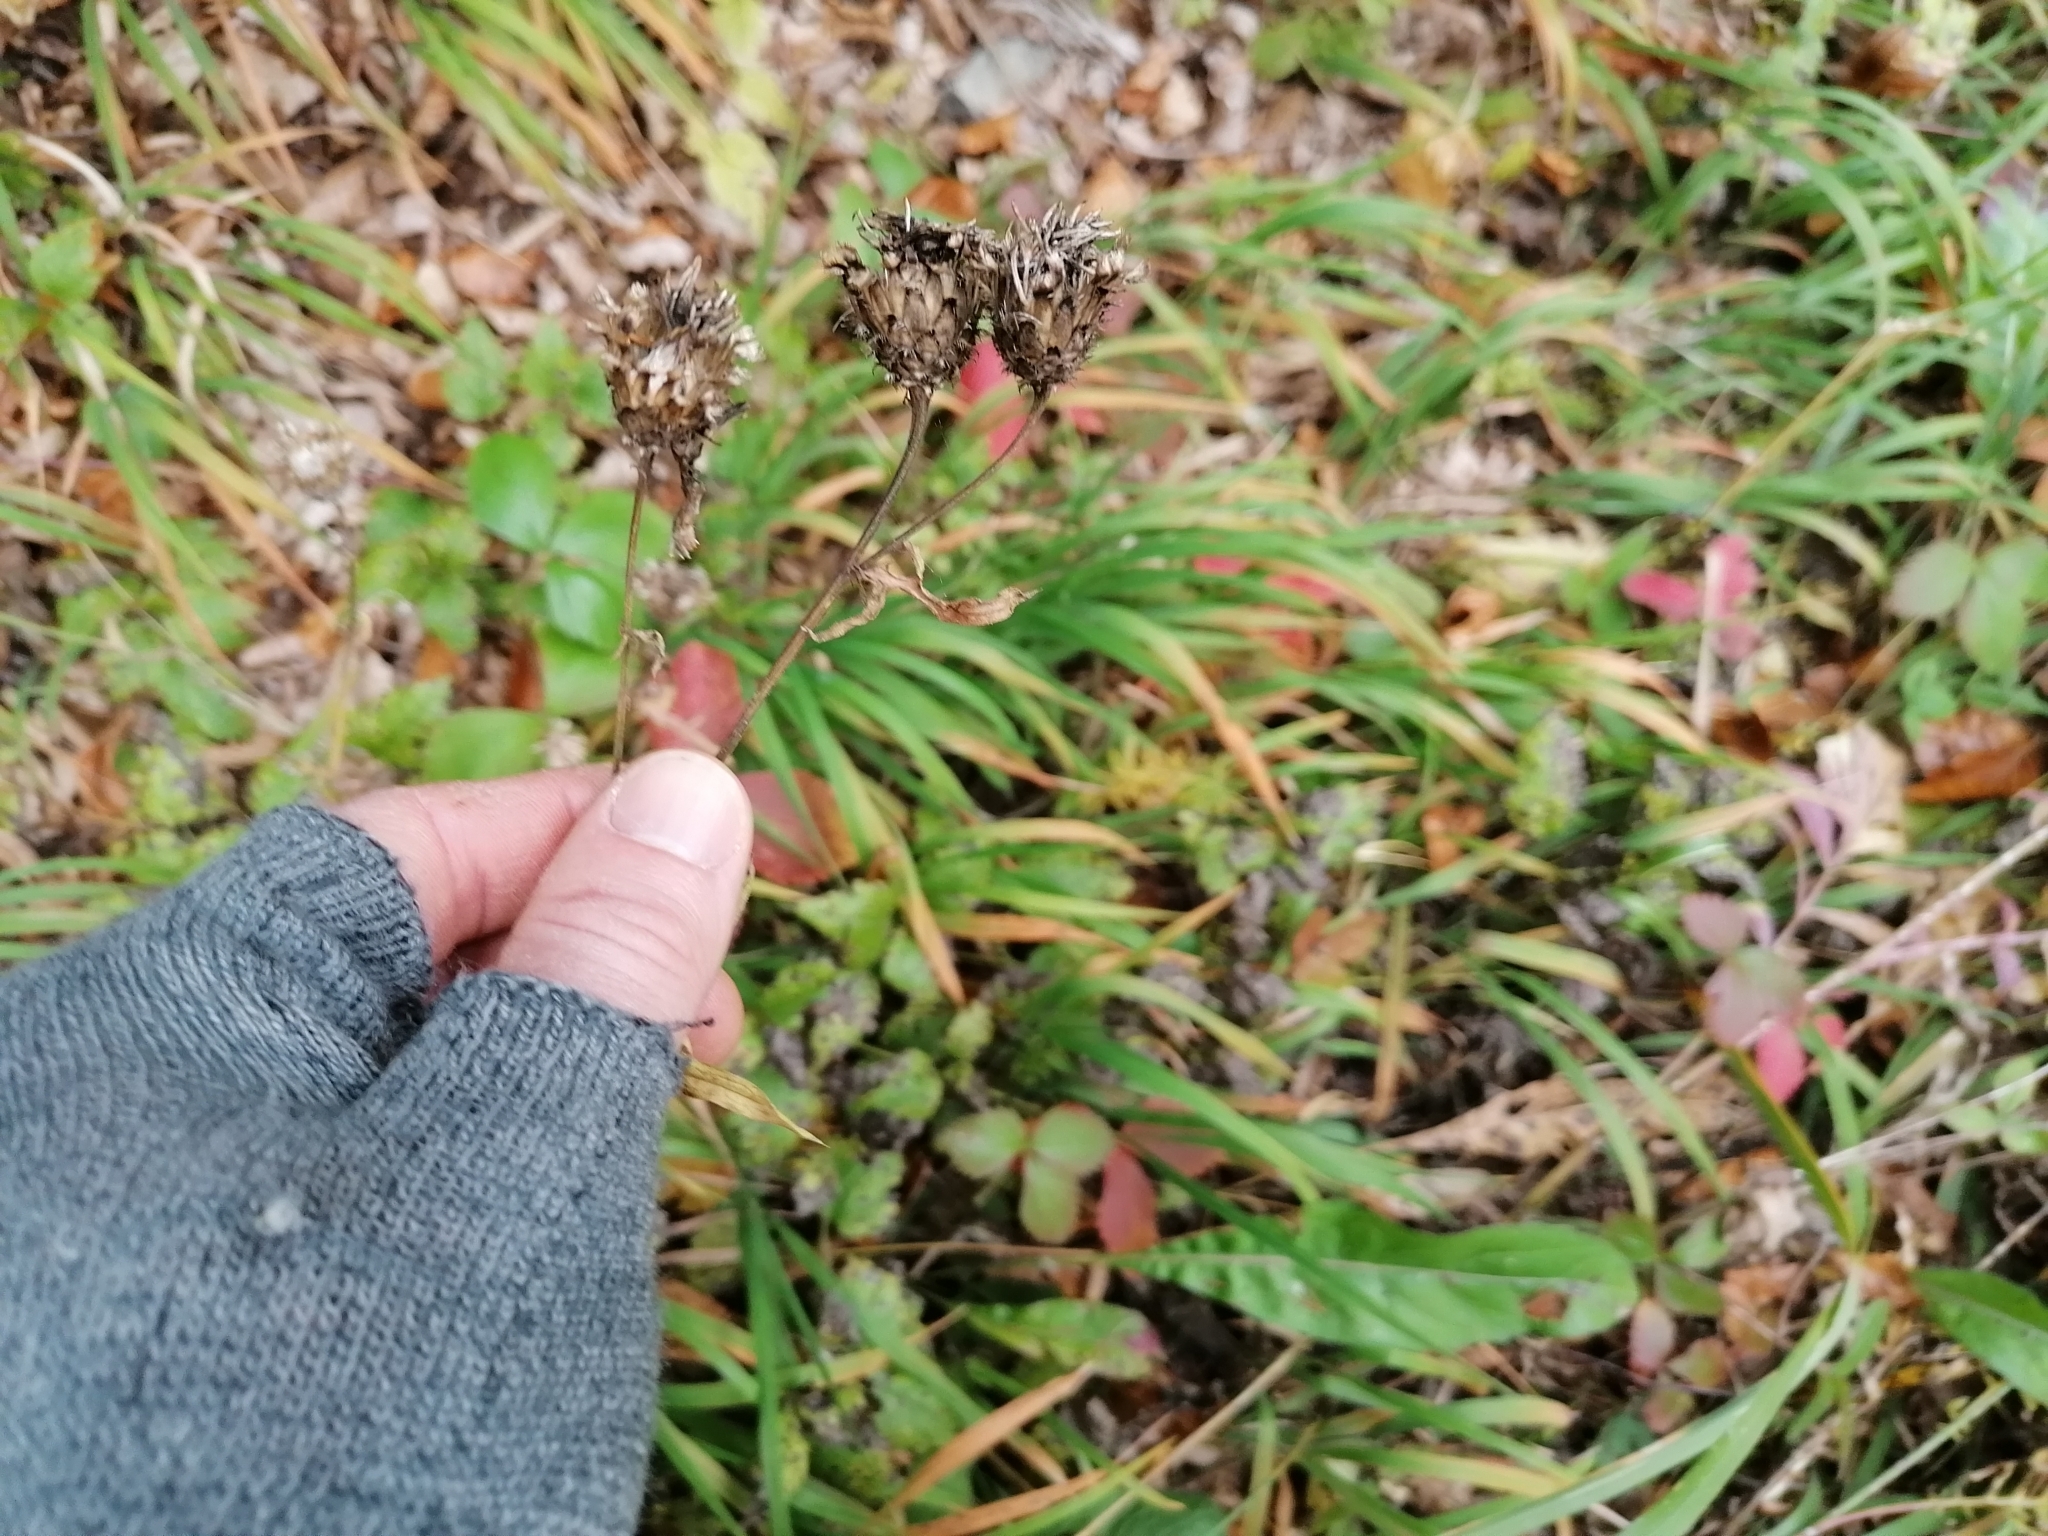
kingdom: Plantae
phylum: Tracheophyta
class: Magnoliopsida
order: Asterales
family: Asteraceae
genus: Centaurea
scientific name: Centaurea scabiosa
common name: Greater knapweed
